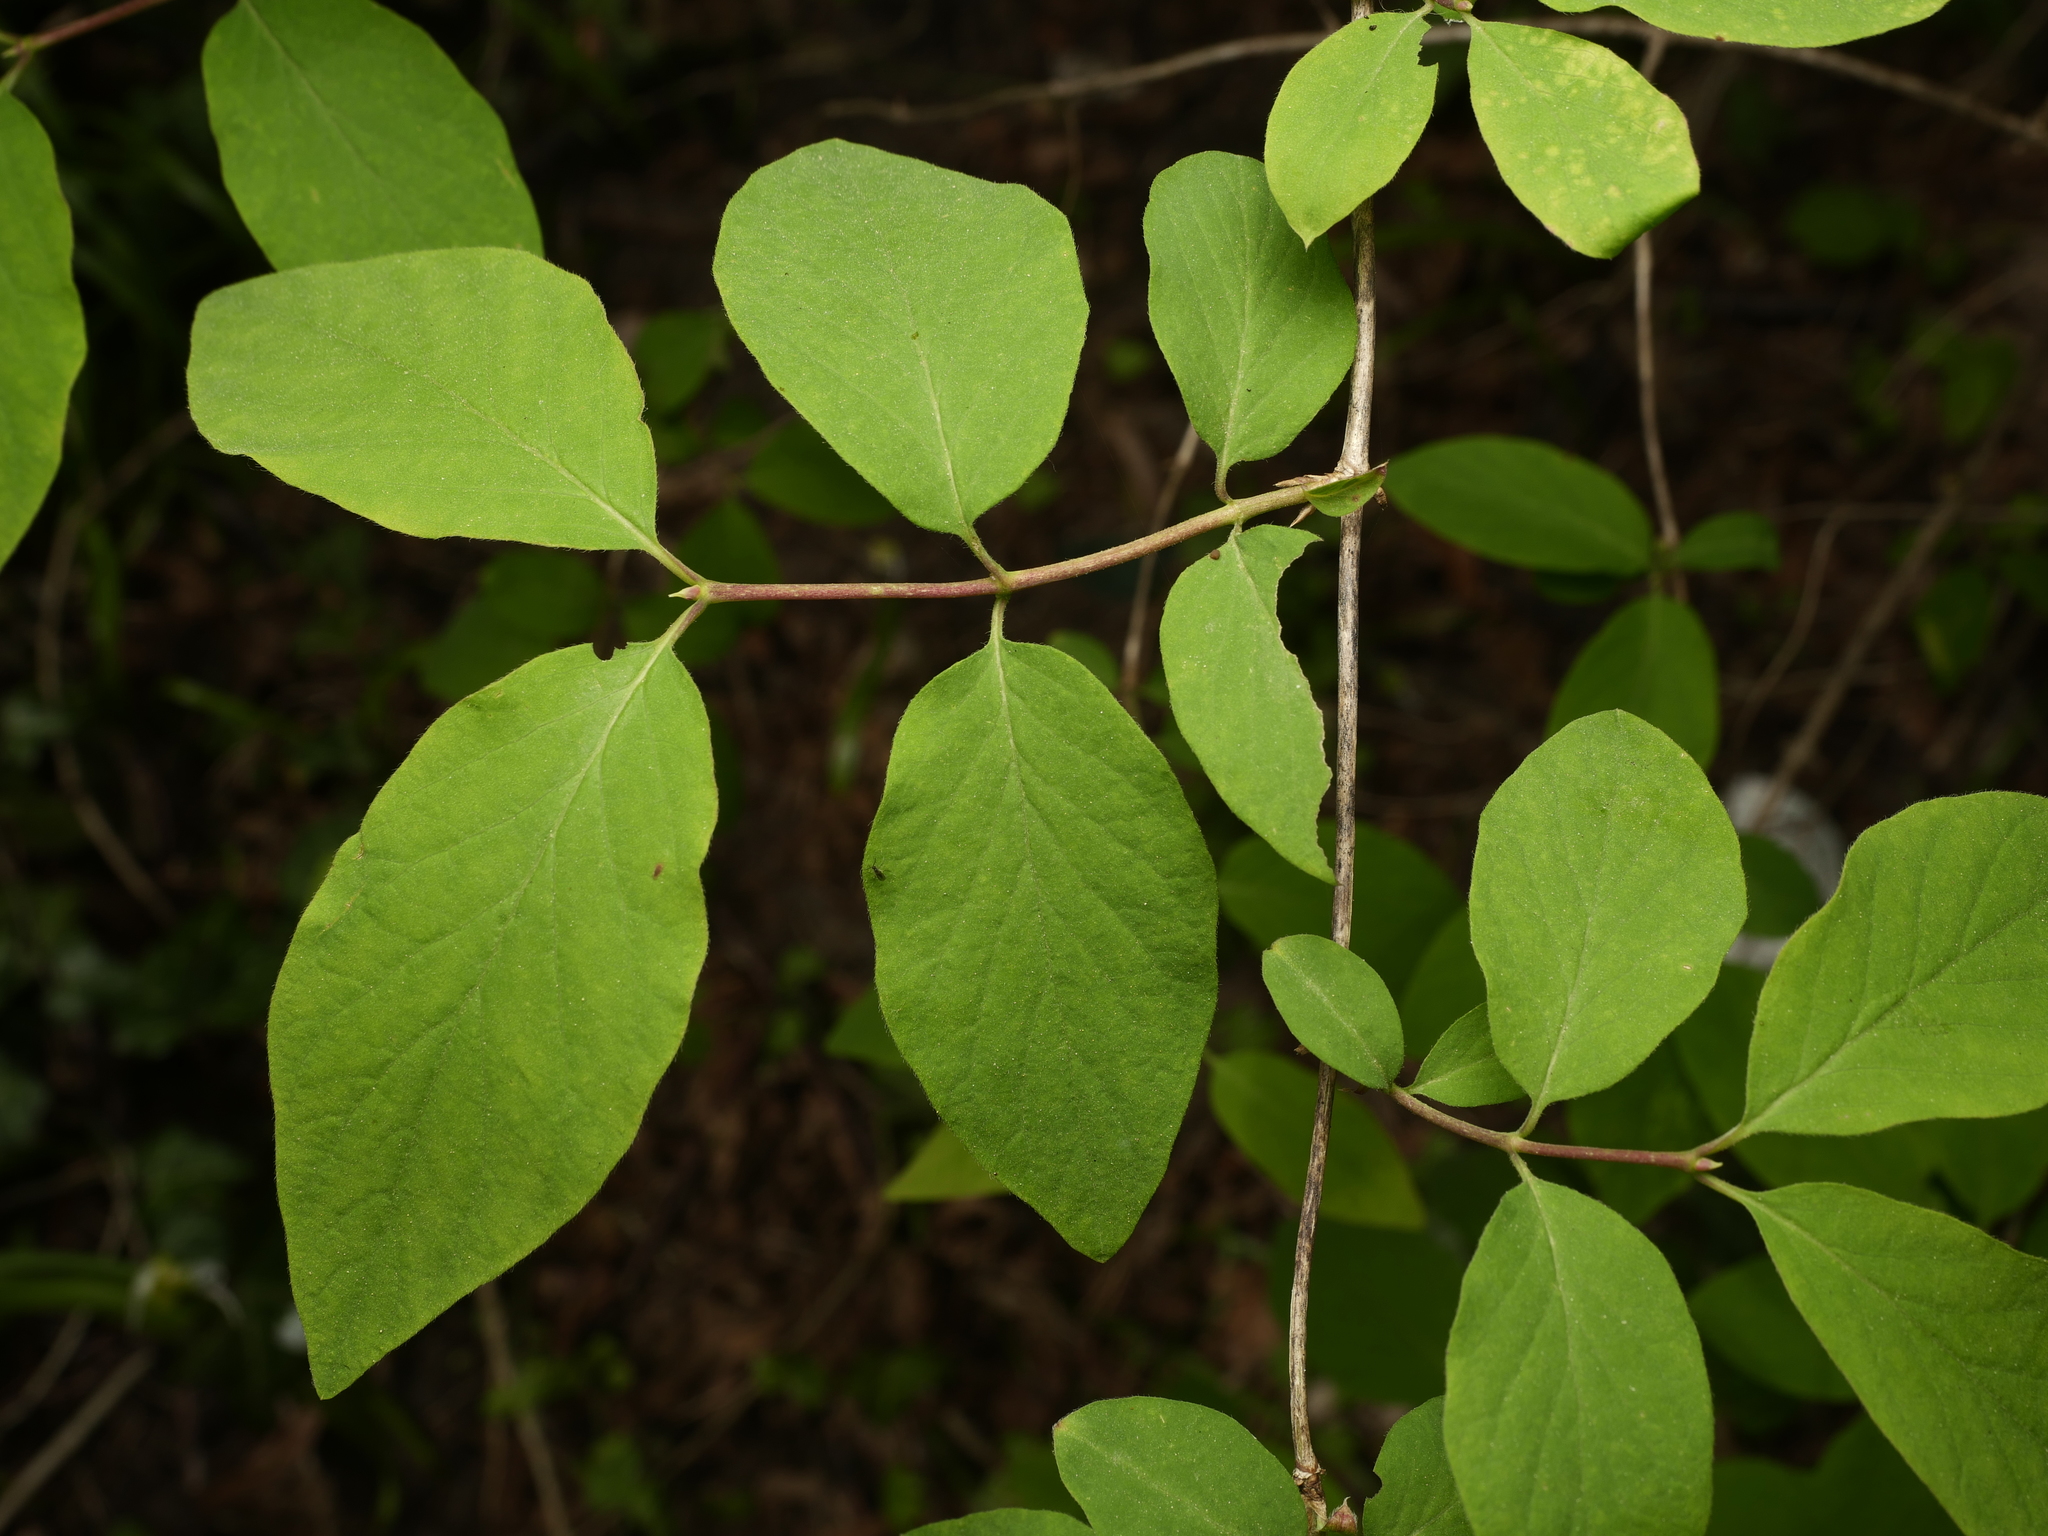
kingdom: Plantae
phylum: Tracheophyta
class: Magnoliopsida
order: Dipsacales
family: Caprifoliaceae
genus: Lonicera
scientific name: Lonicera xylosteum
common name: Fly honeysuckle
